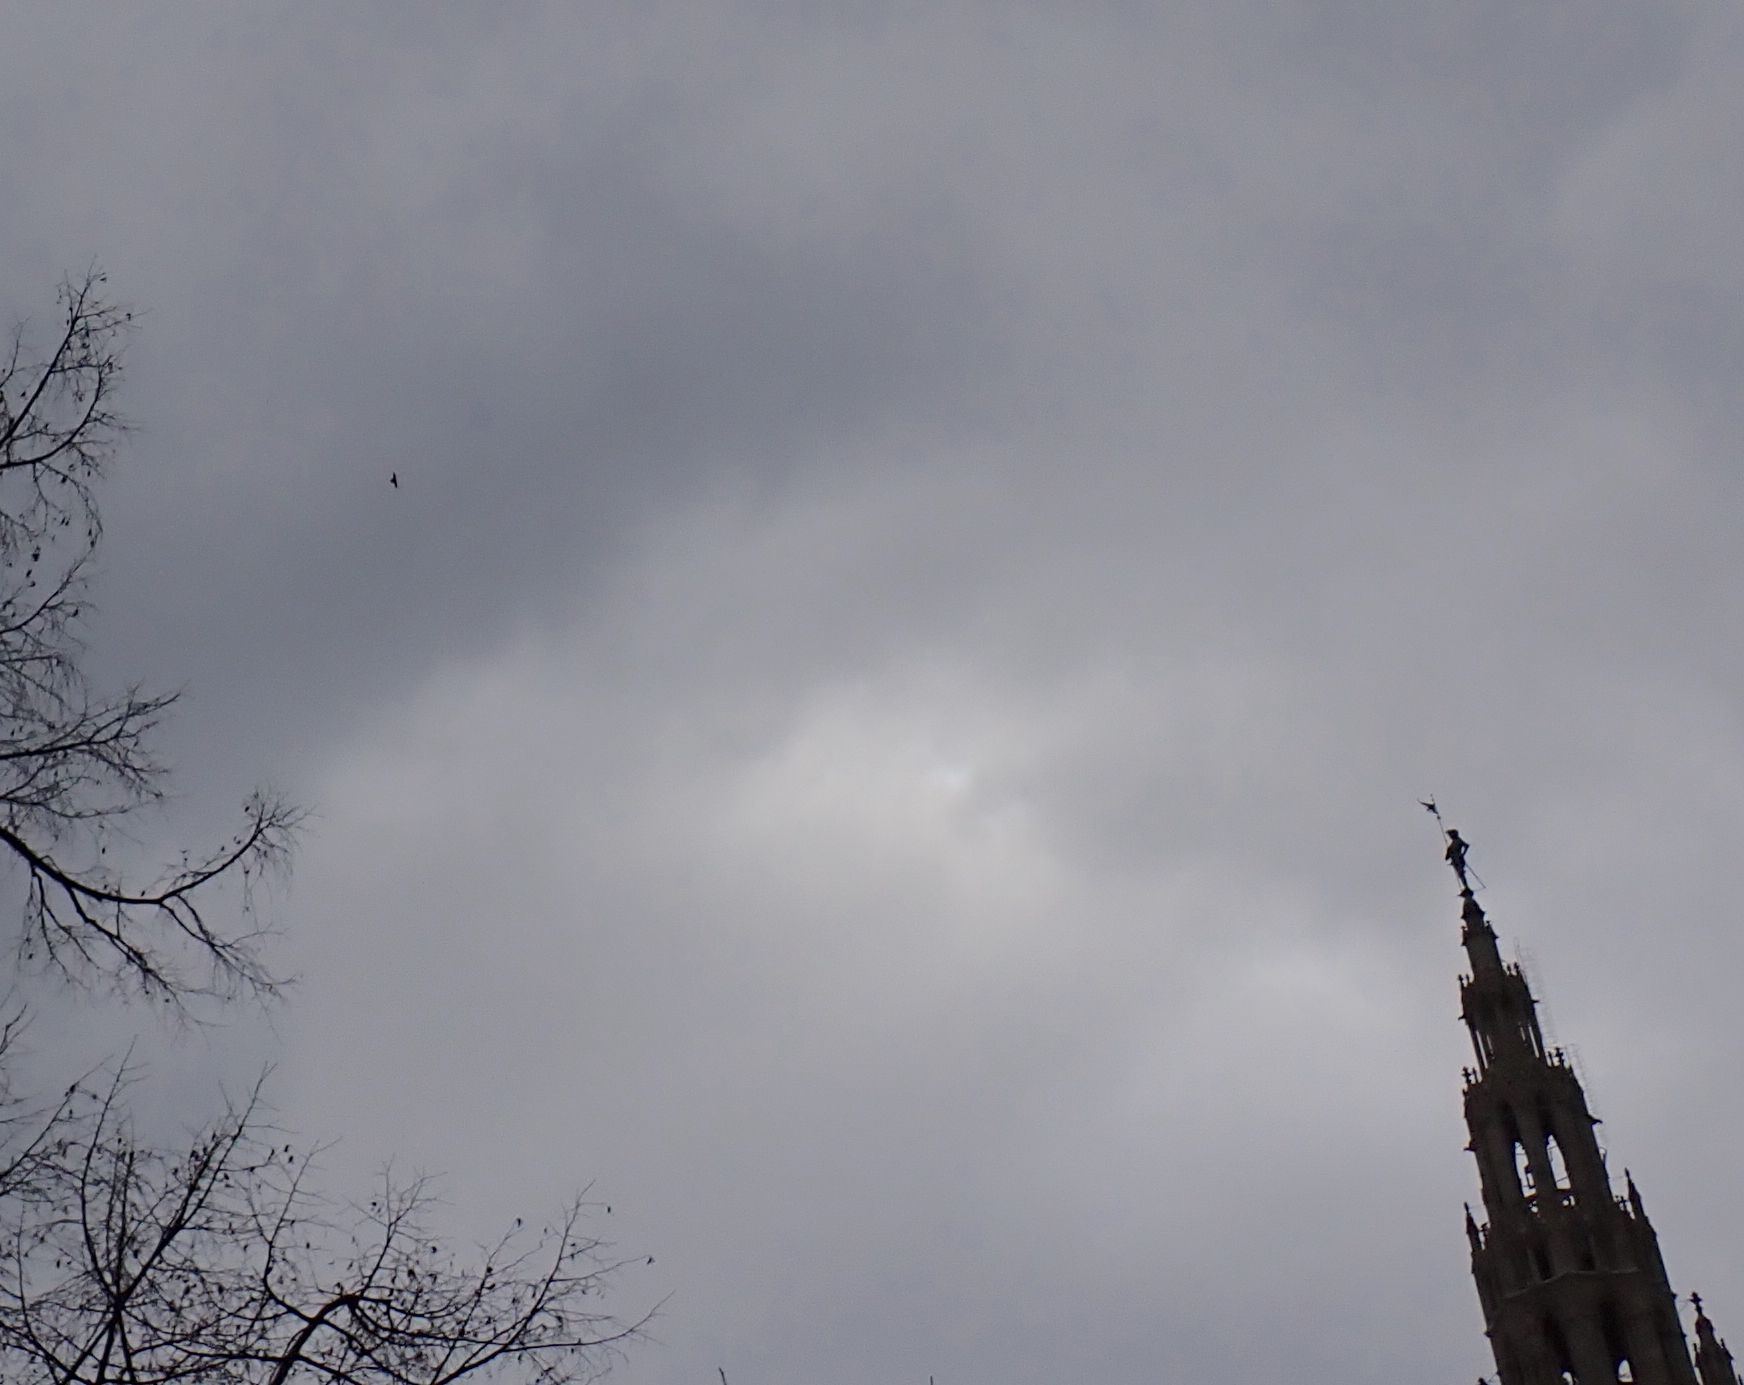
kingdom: Animalia
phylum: Chordata
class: Aves
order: Falconiformes
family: Falconidae
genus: Falco
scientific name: Falco peregrinus
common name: Peregrine falcon
